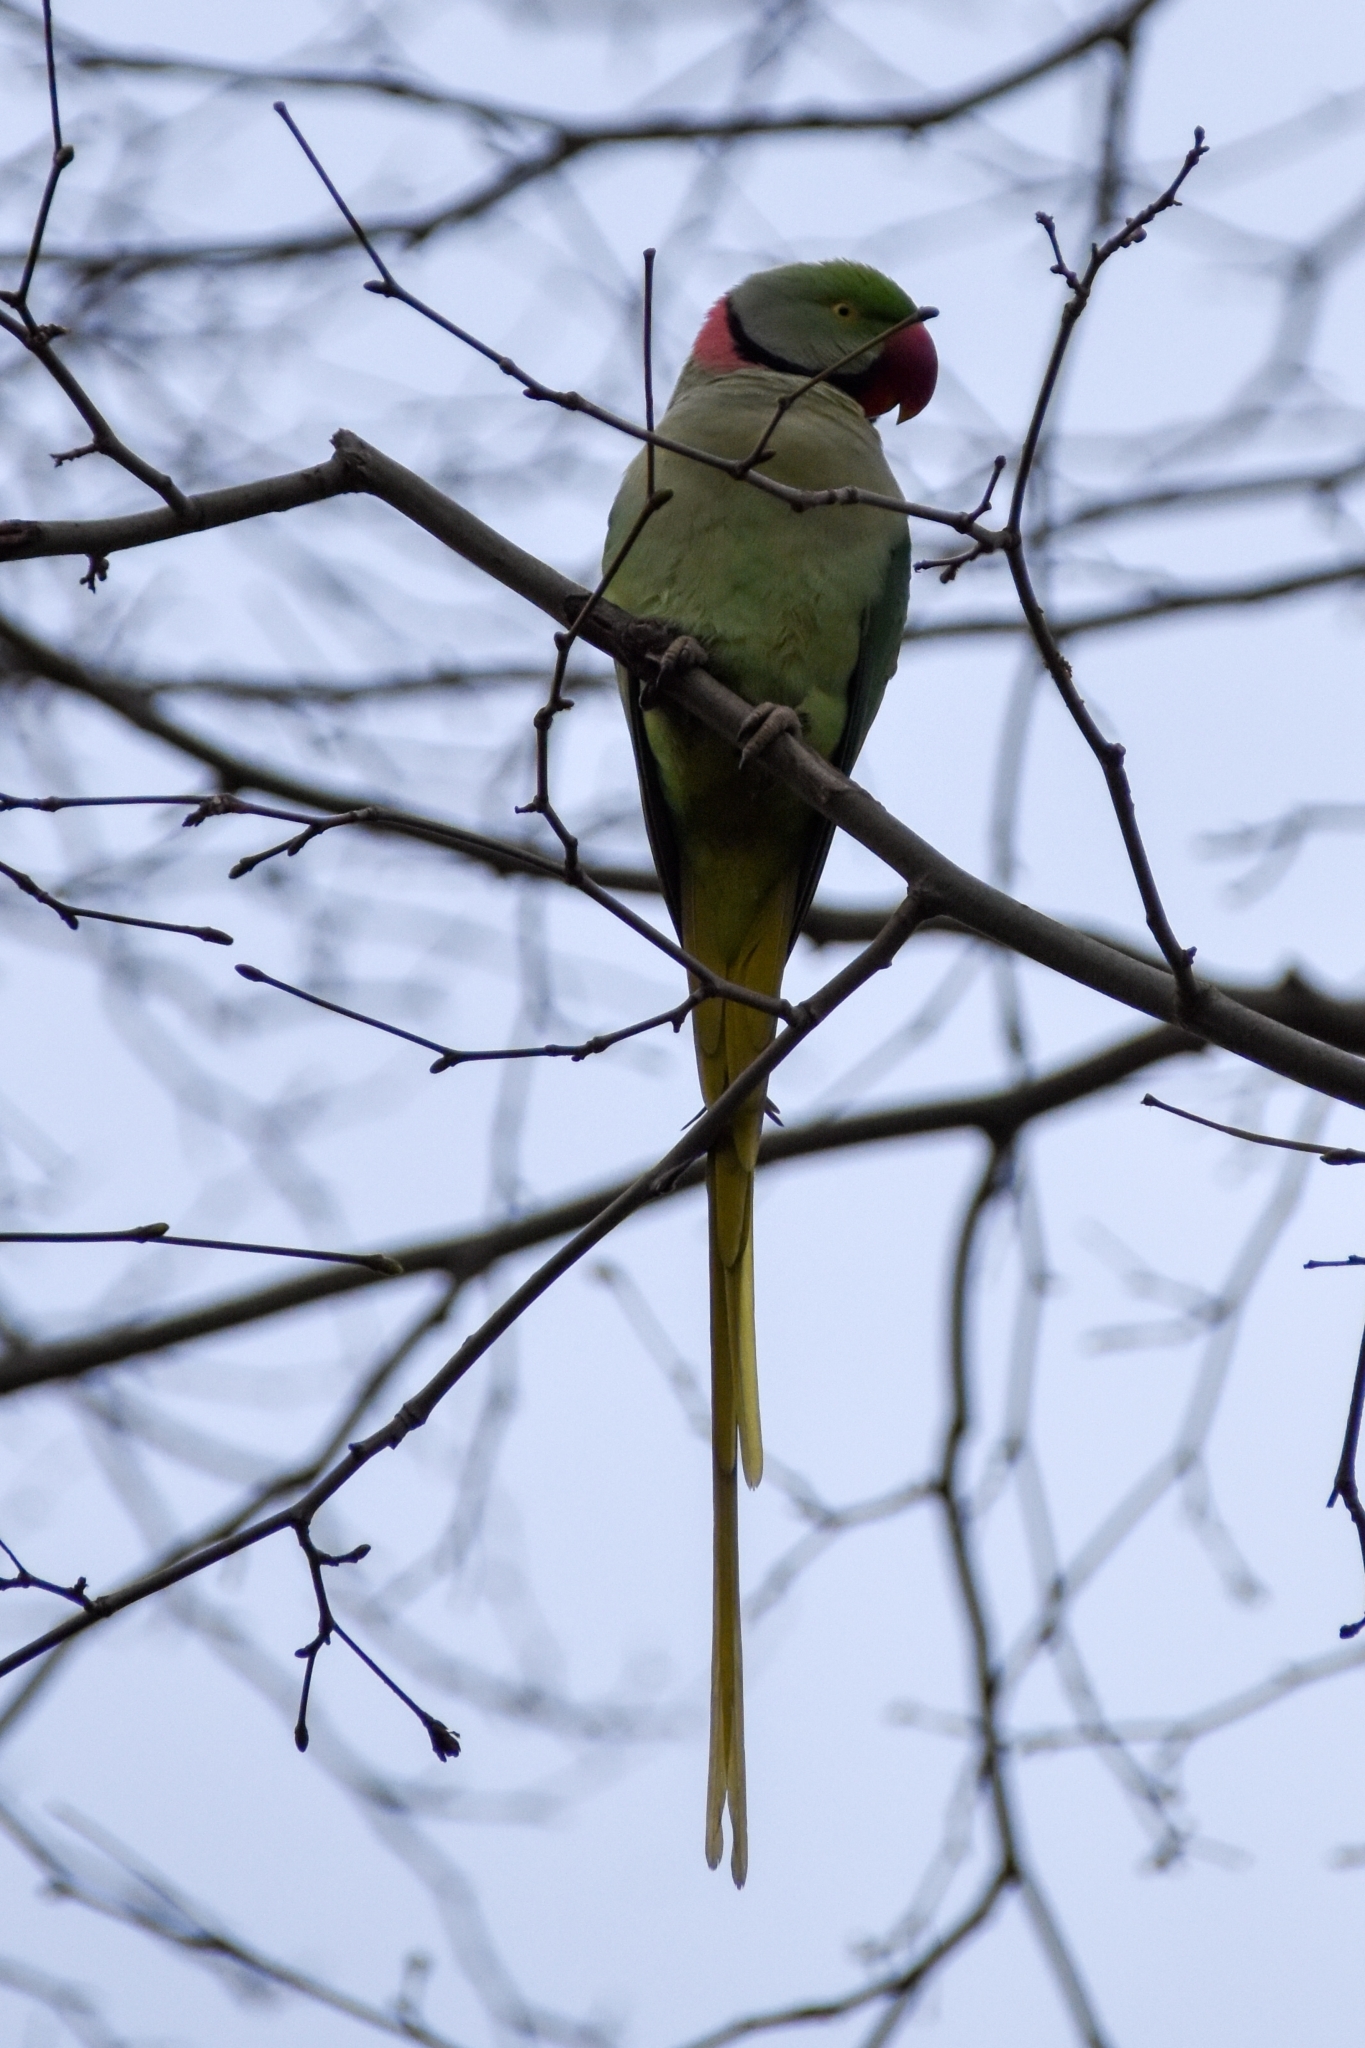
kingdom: Animalia
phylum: Chordata
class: Aves
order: Psittaciformes
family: Psittacidae
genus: Psittacula
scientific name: Psittacula eupatria
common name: Alexandrine parakeet
